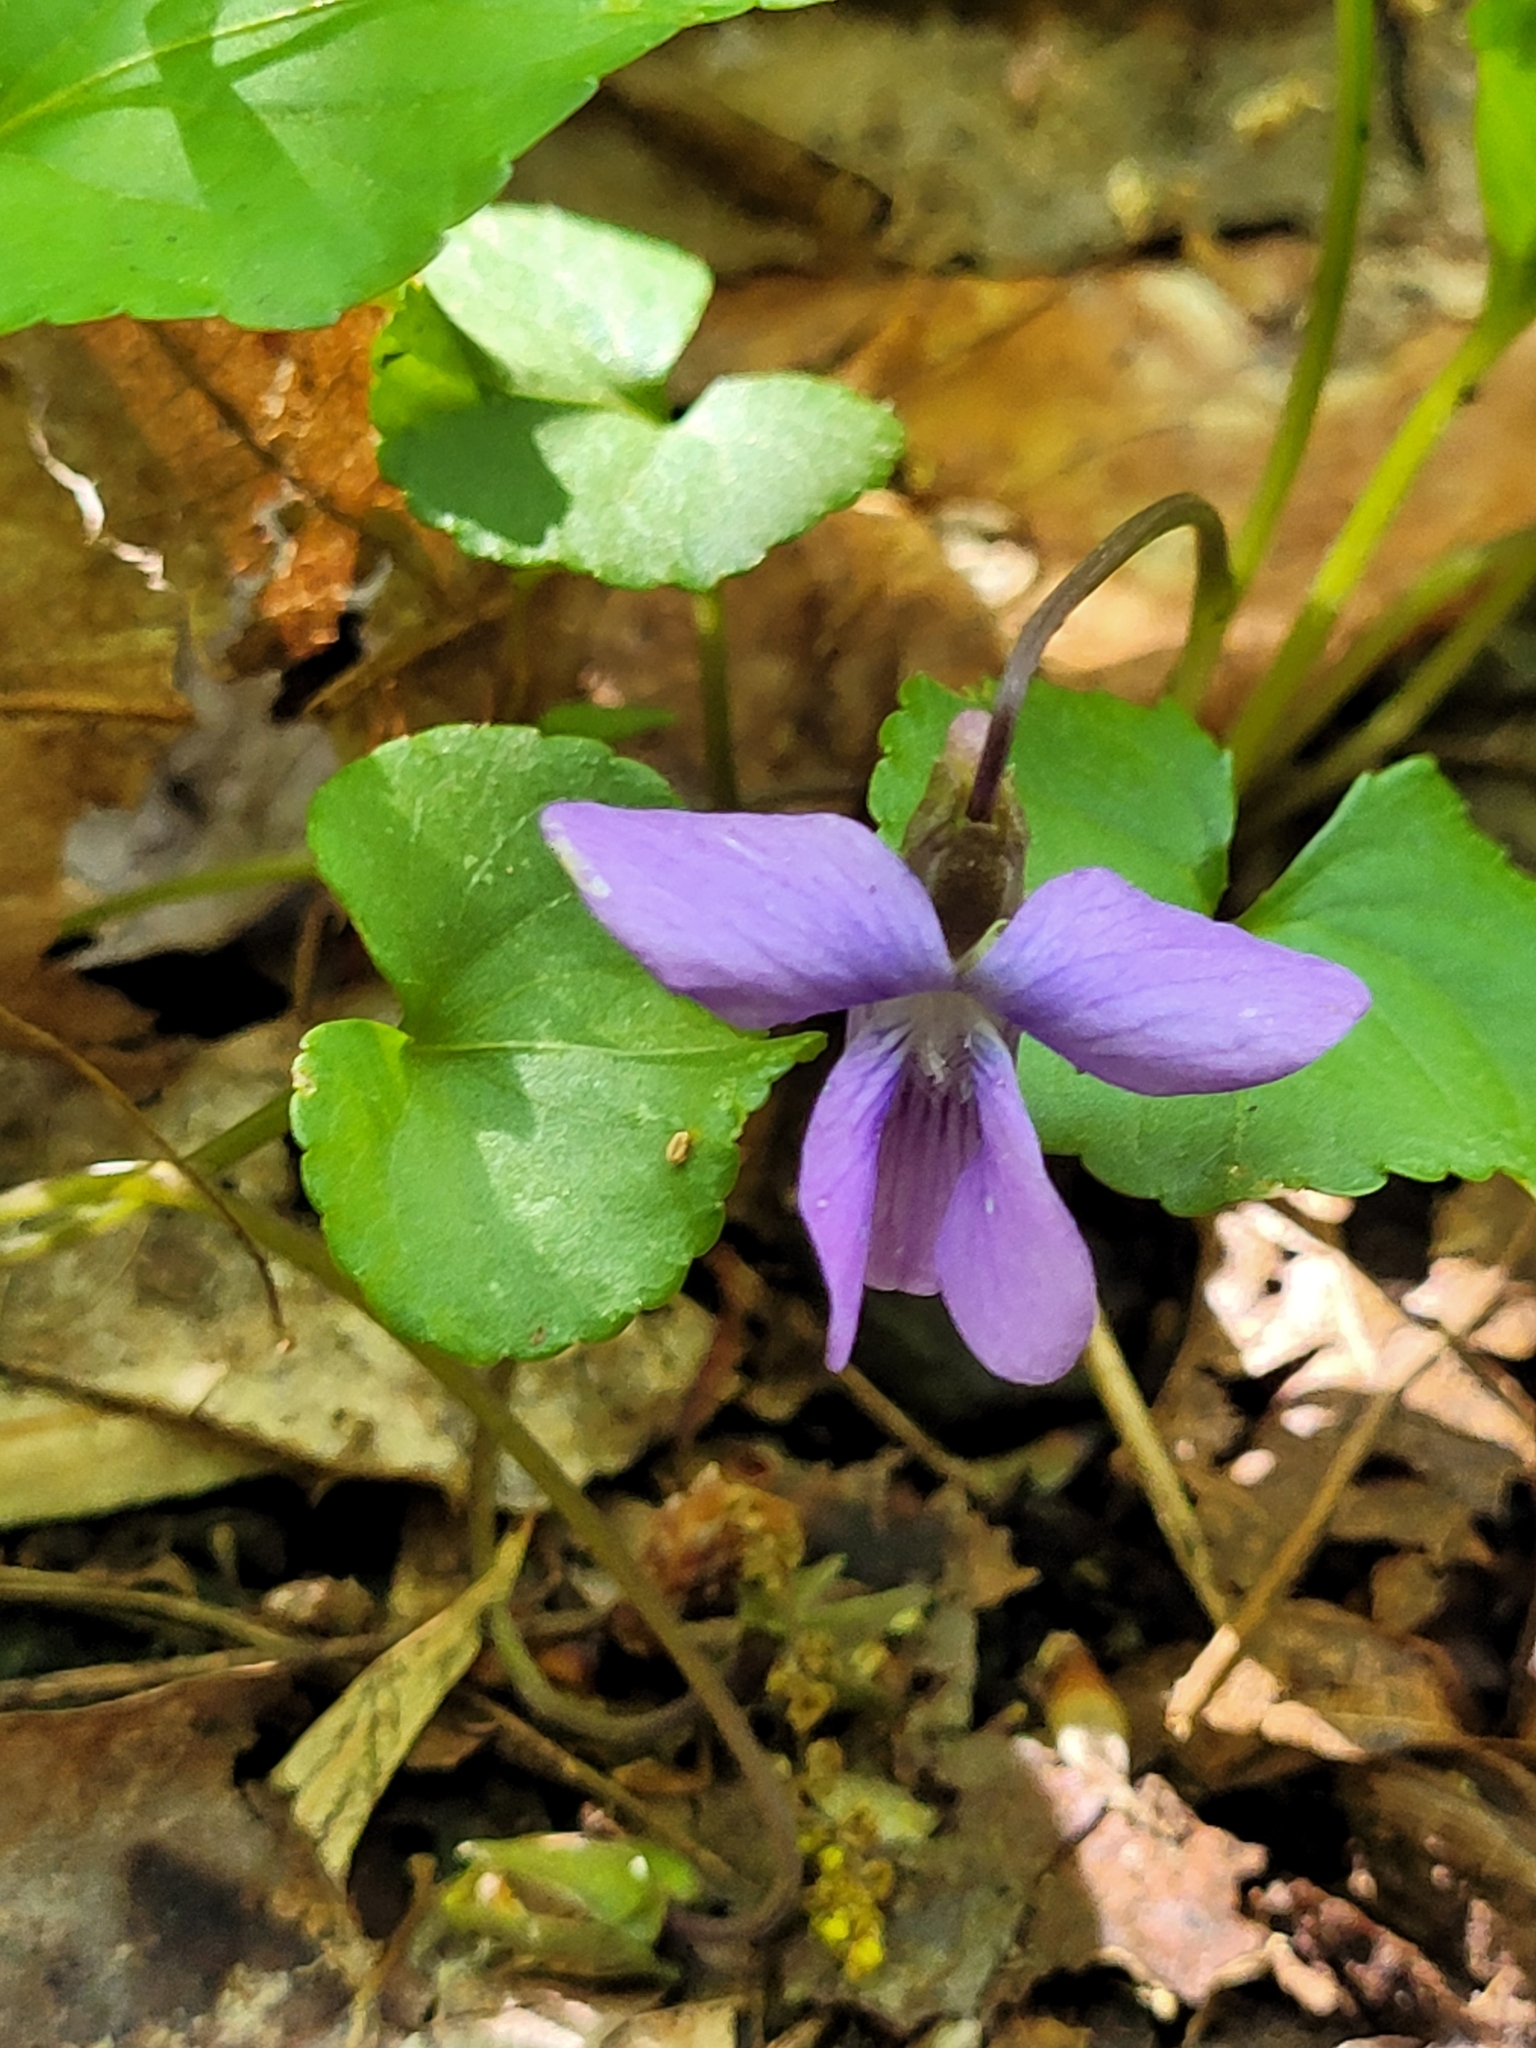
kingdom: Plantae
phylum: Tracheophyta
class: Magnoliopsida
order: Malpighiales
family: Violaceae
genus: Viola
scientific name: Viola sororia
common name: Dooryard violet
